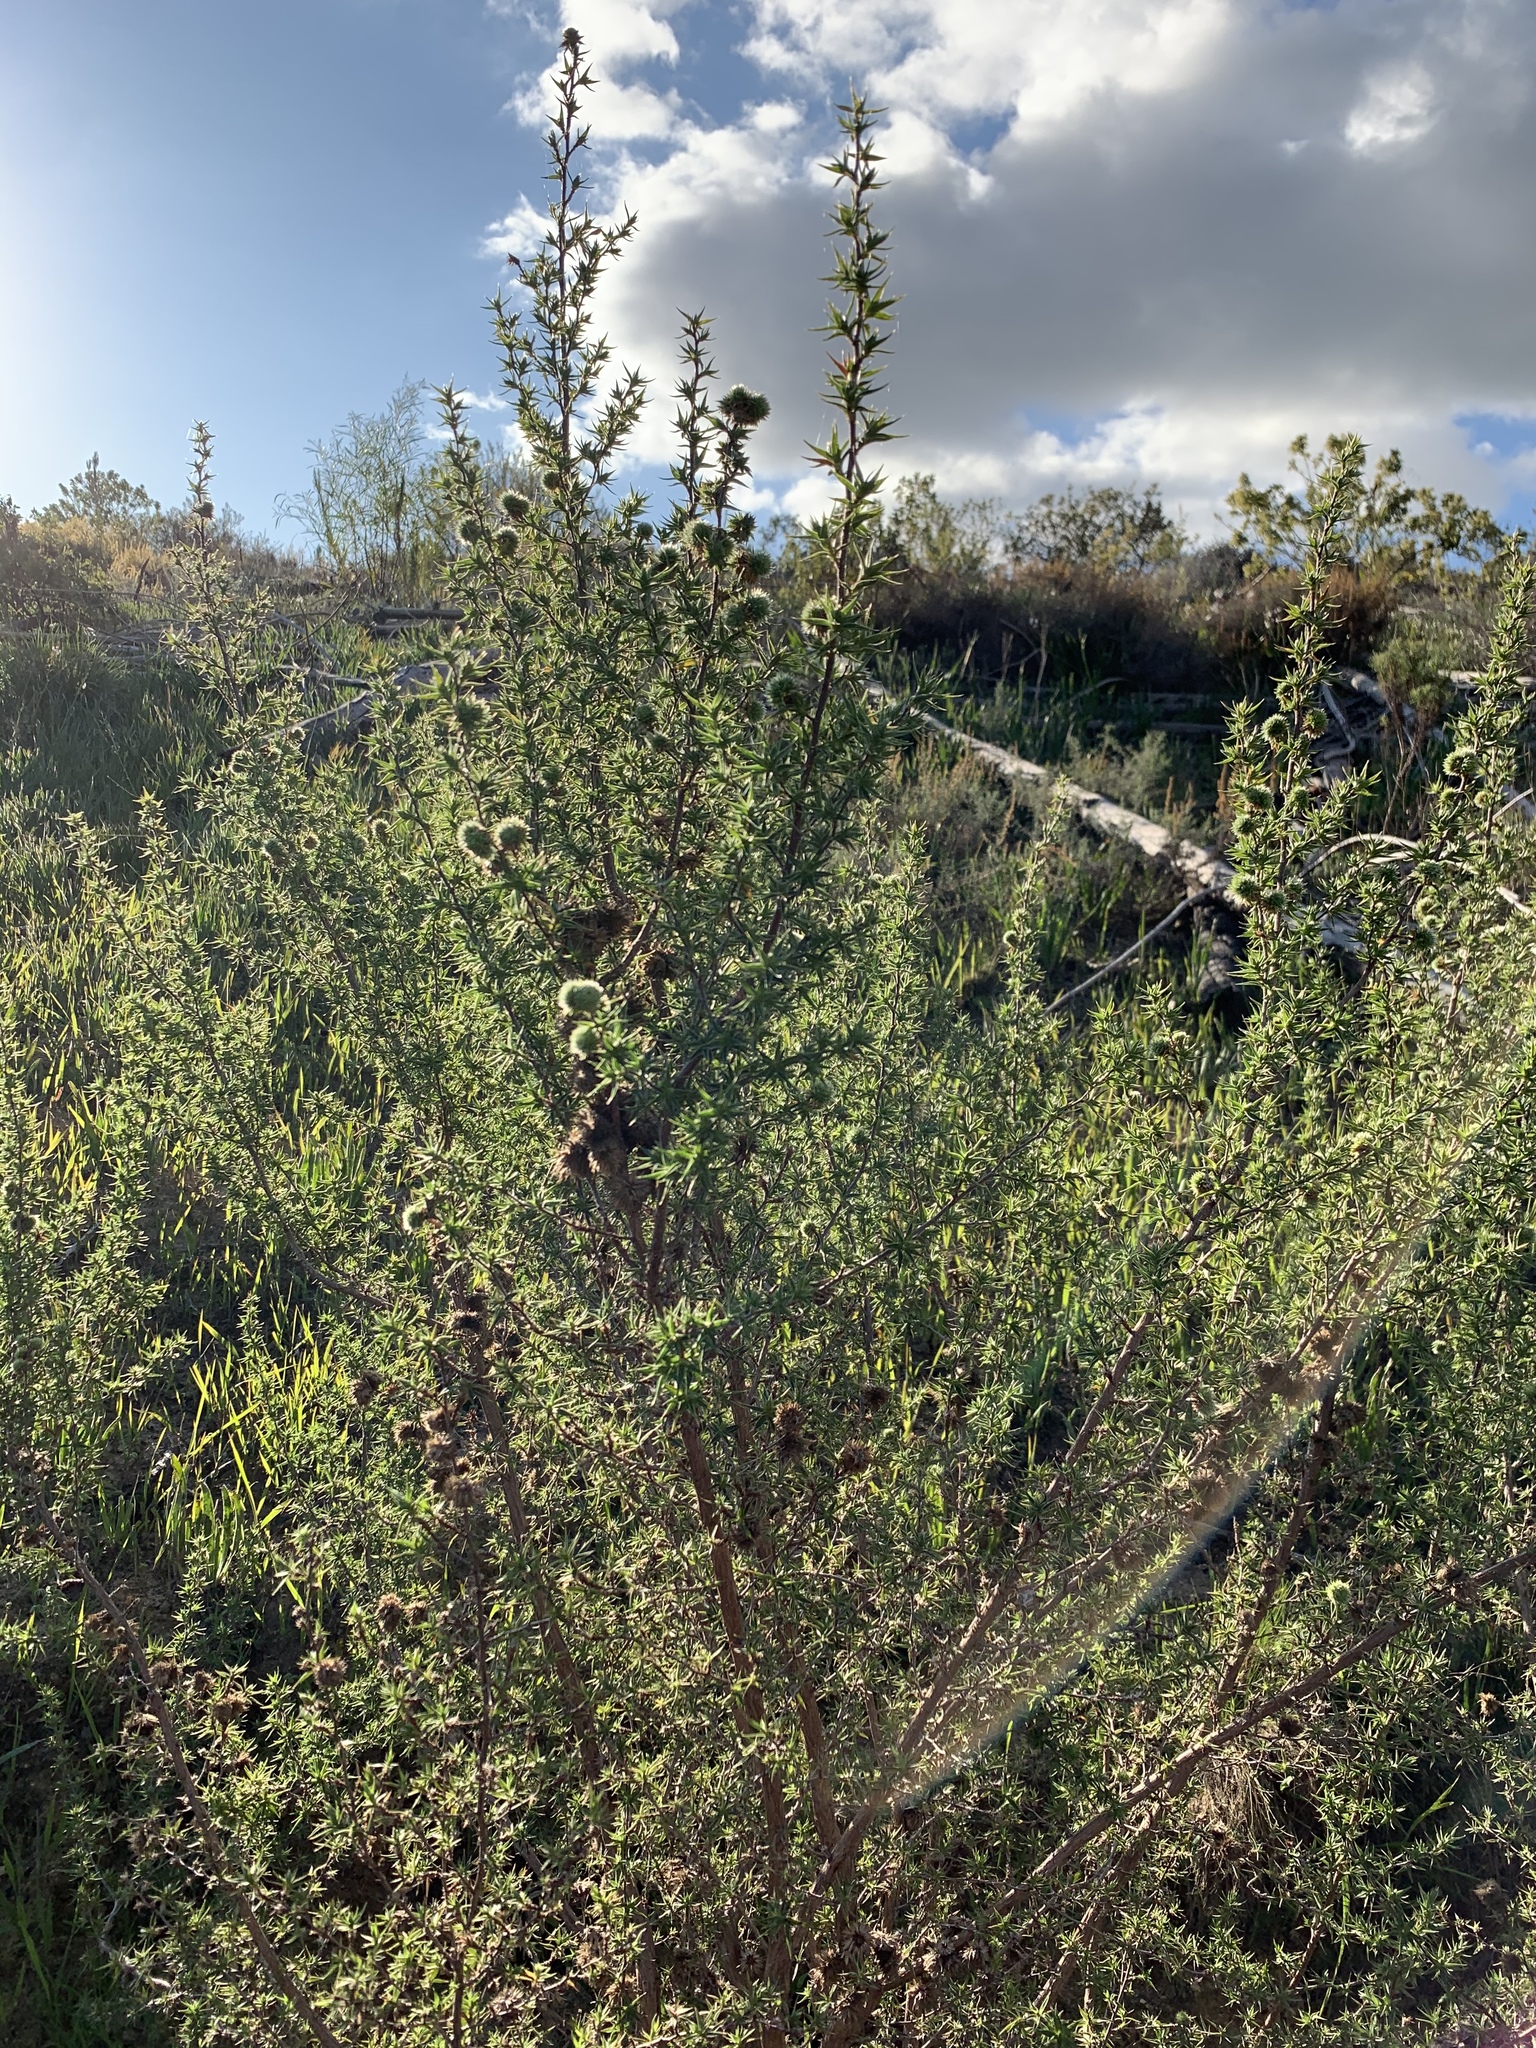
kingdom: Plantae
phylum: Tracheophyta
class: Magnoliopsida
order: Rosales
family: Rosaceae
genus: Cliffortia
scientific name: Cliffortia ruscifolia
